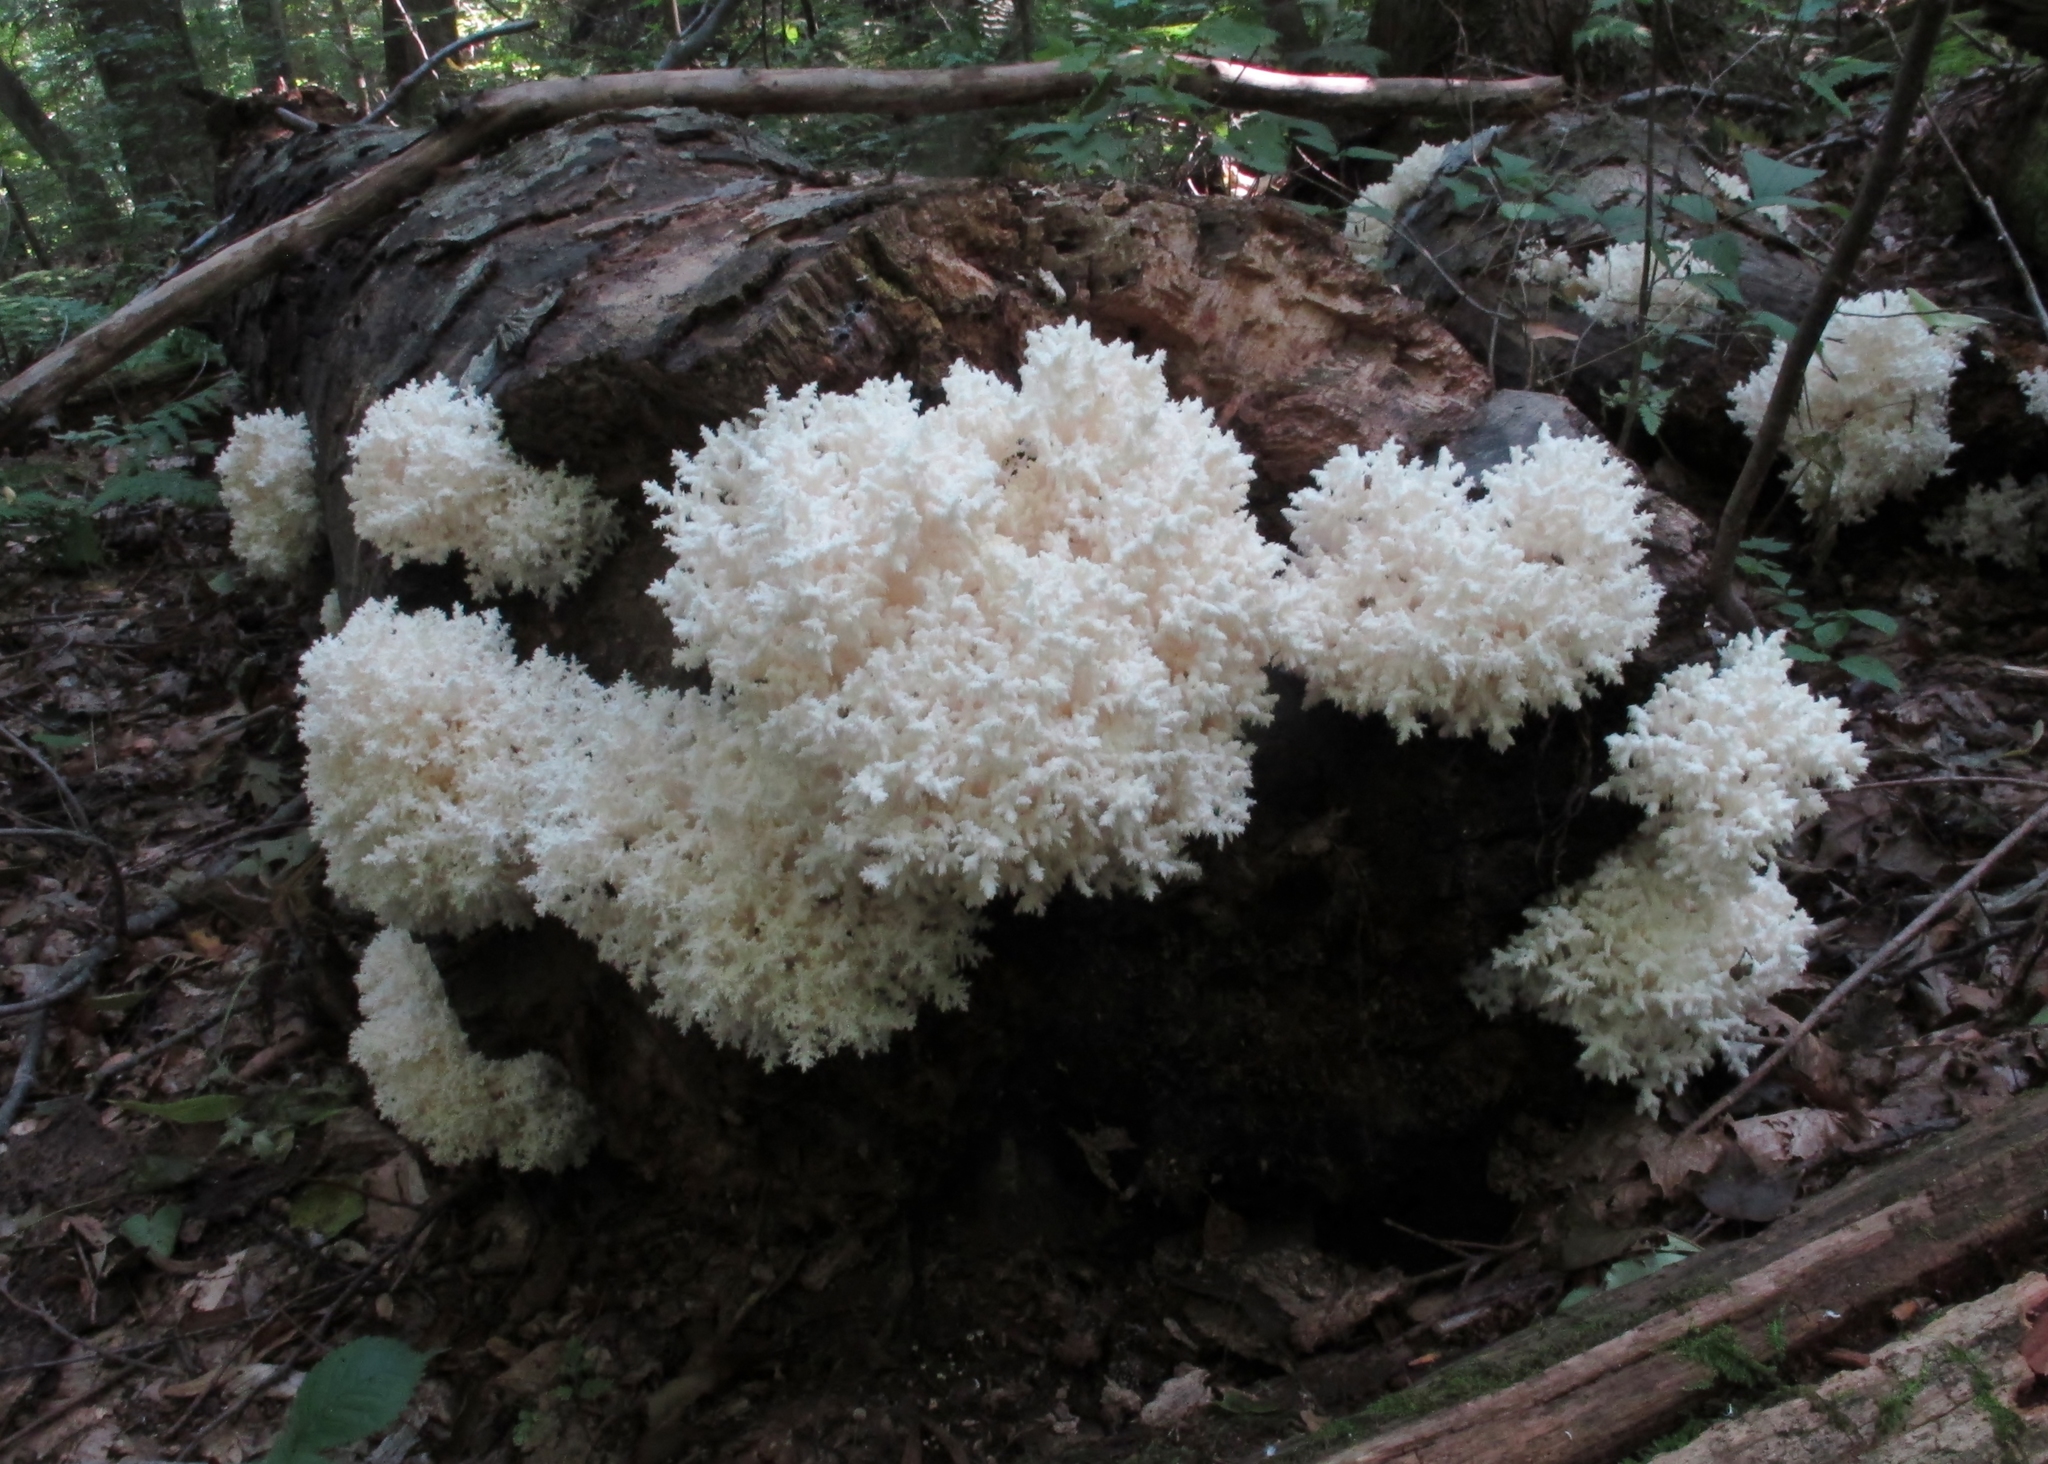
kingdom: Fungi
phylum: Basidiomycota
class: Agaricomycetes
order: Russulales
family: Hericiaceae
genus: Hericium
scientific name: Hericium coralloides
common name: Coral tooth
